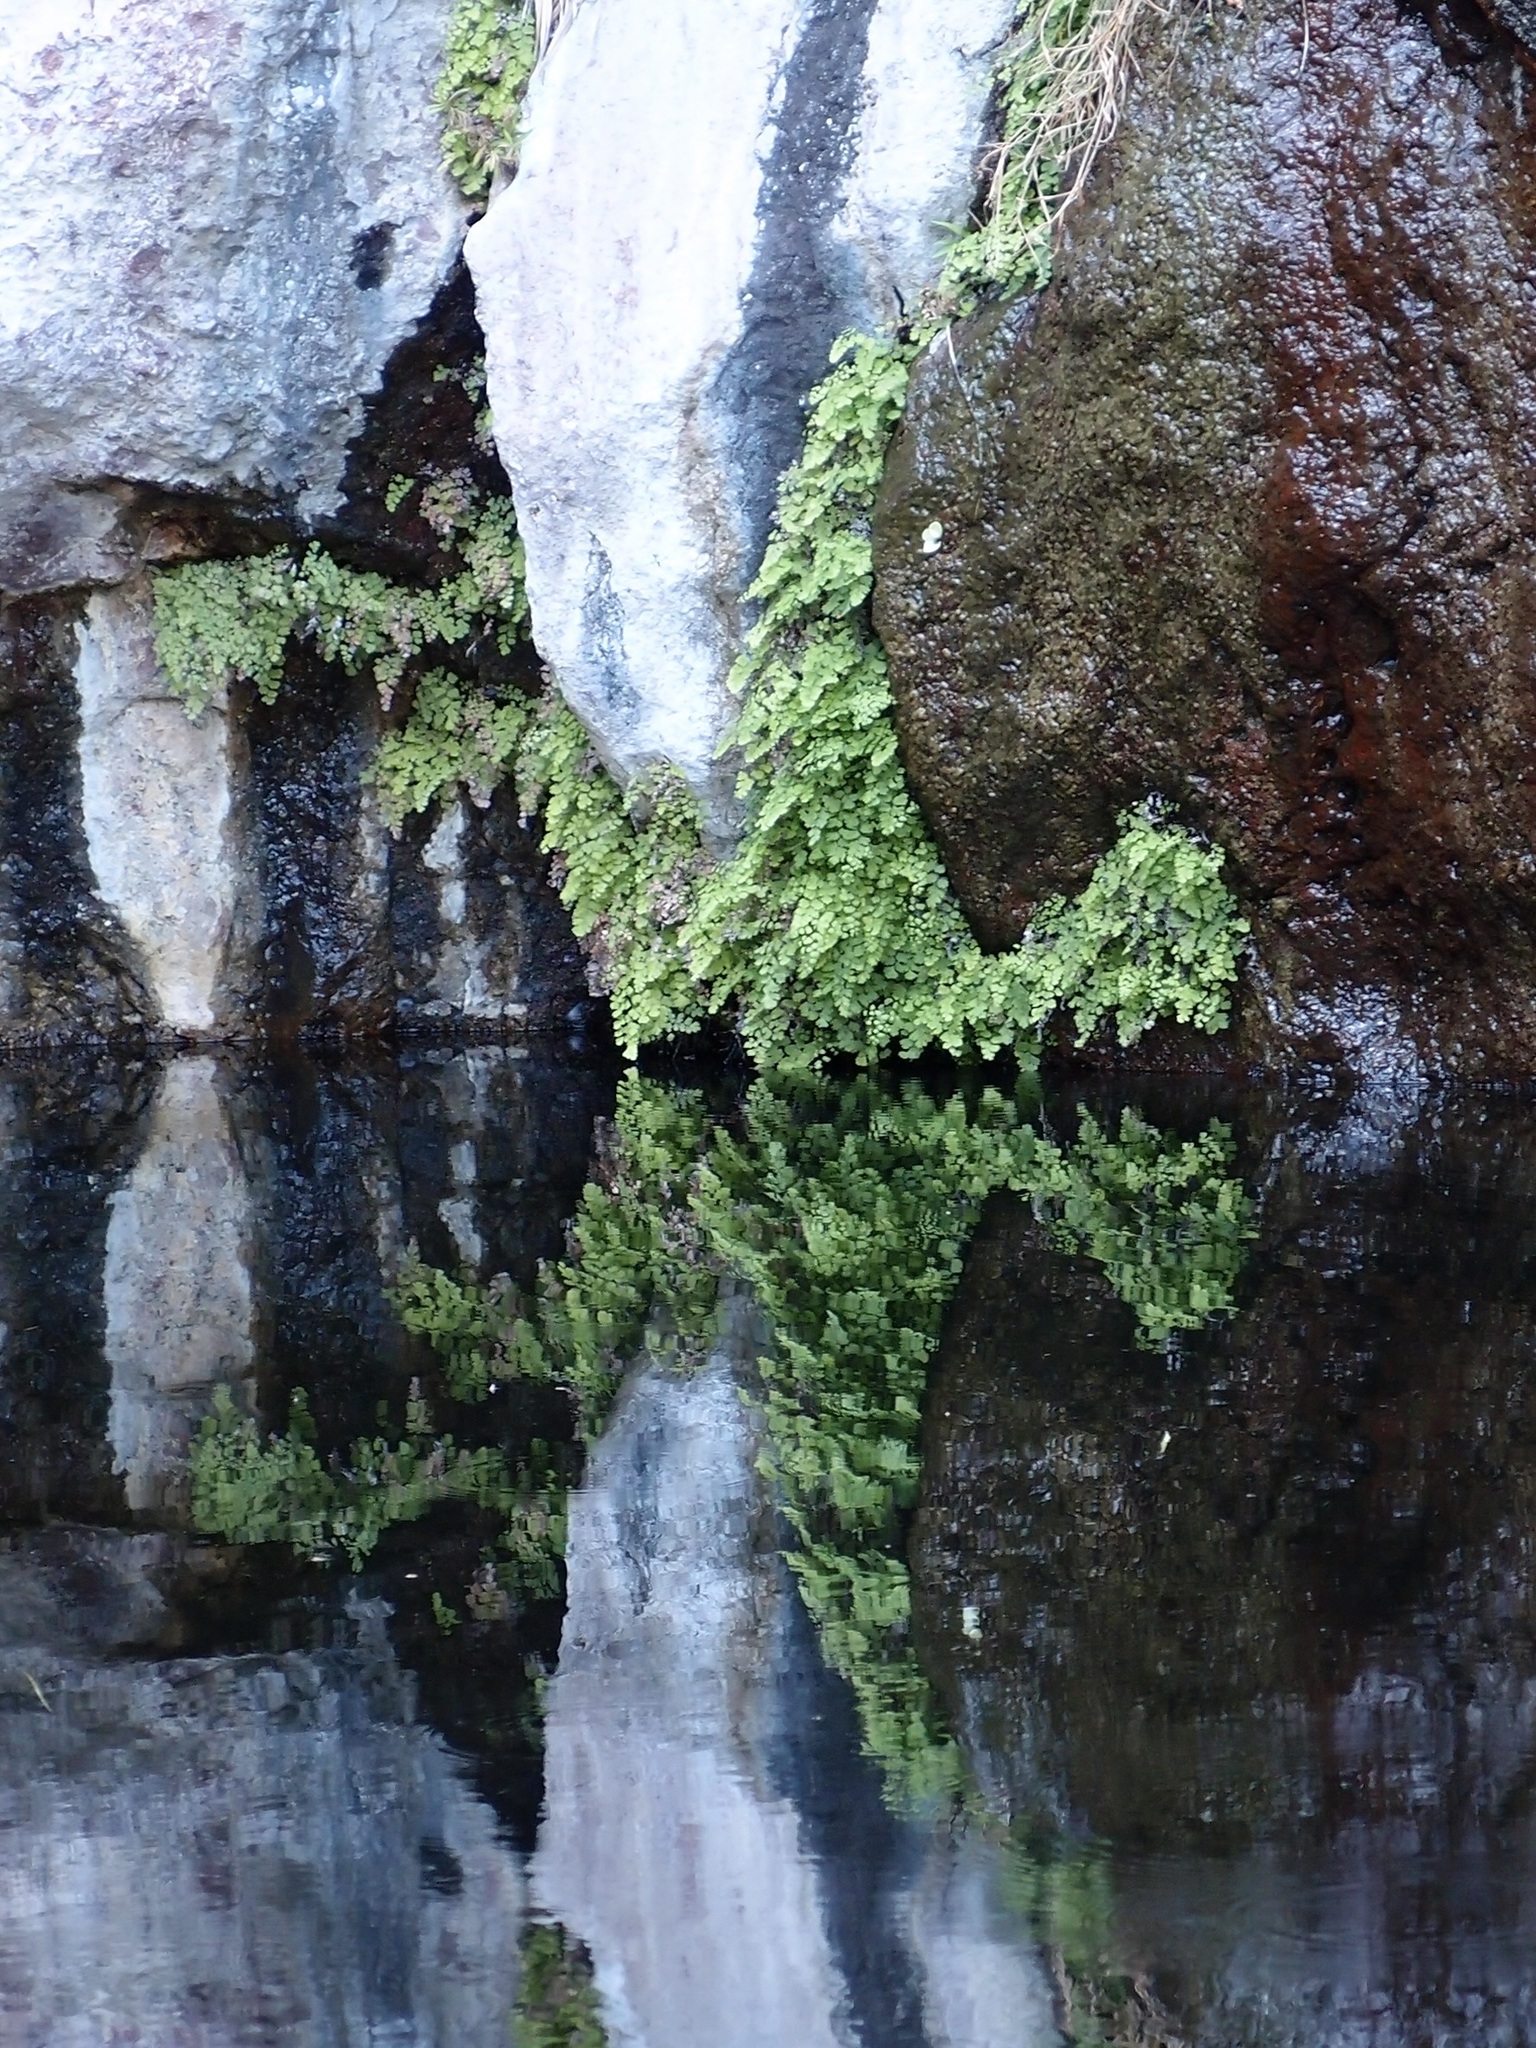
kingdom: Plantae
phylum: Tracheophyta
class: Polypodiopsida
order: Polypodiales
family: Pteridaceae
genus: Adiantum
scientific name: Adiantum capillus-veneris
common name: Maidenhair fern
